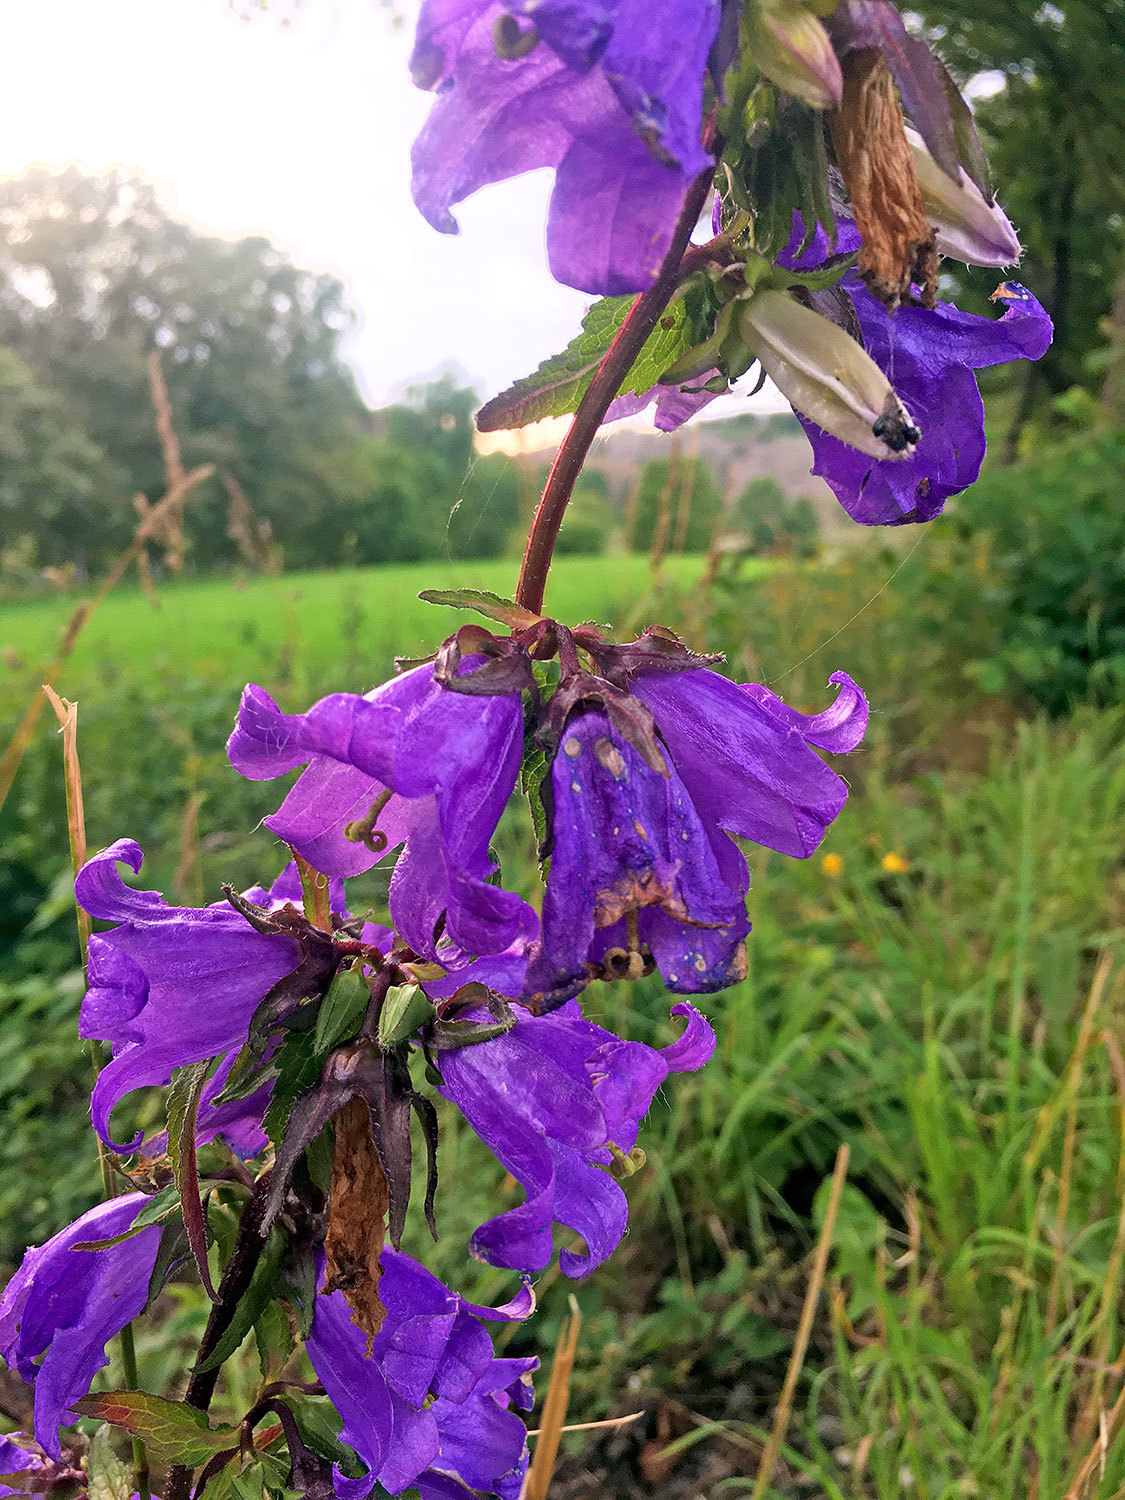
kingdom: Plantae
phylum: Tracheophyta
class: Magnoliopsida
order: Asterales
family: Campanulaceae
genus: Campanula
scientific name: Campanula trachelium
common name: Nettle-leaved bellflower
